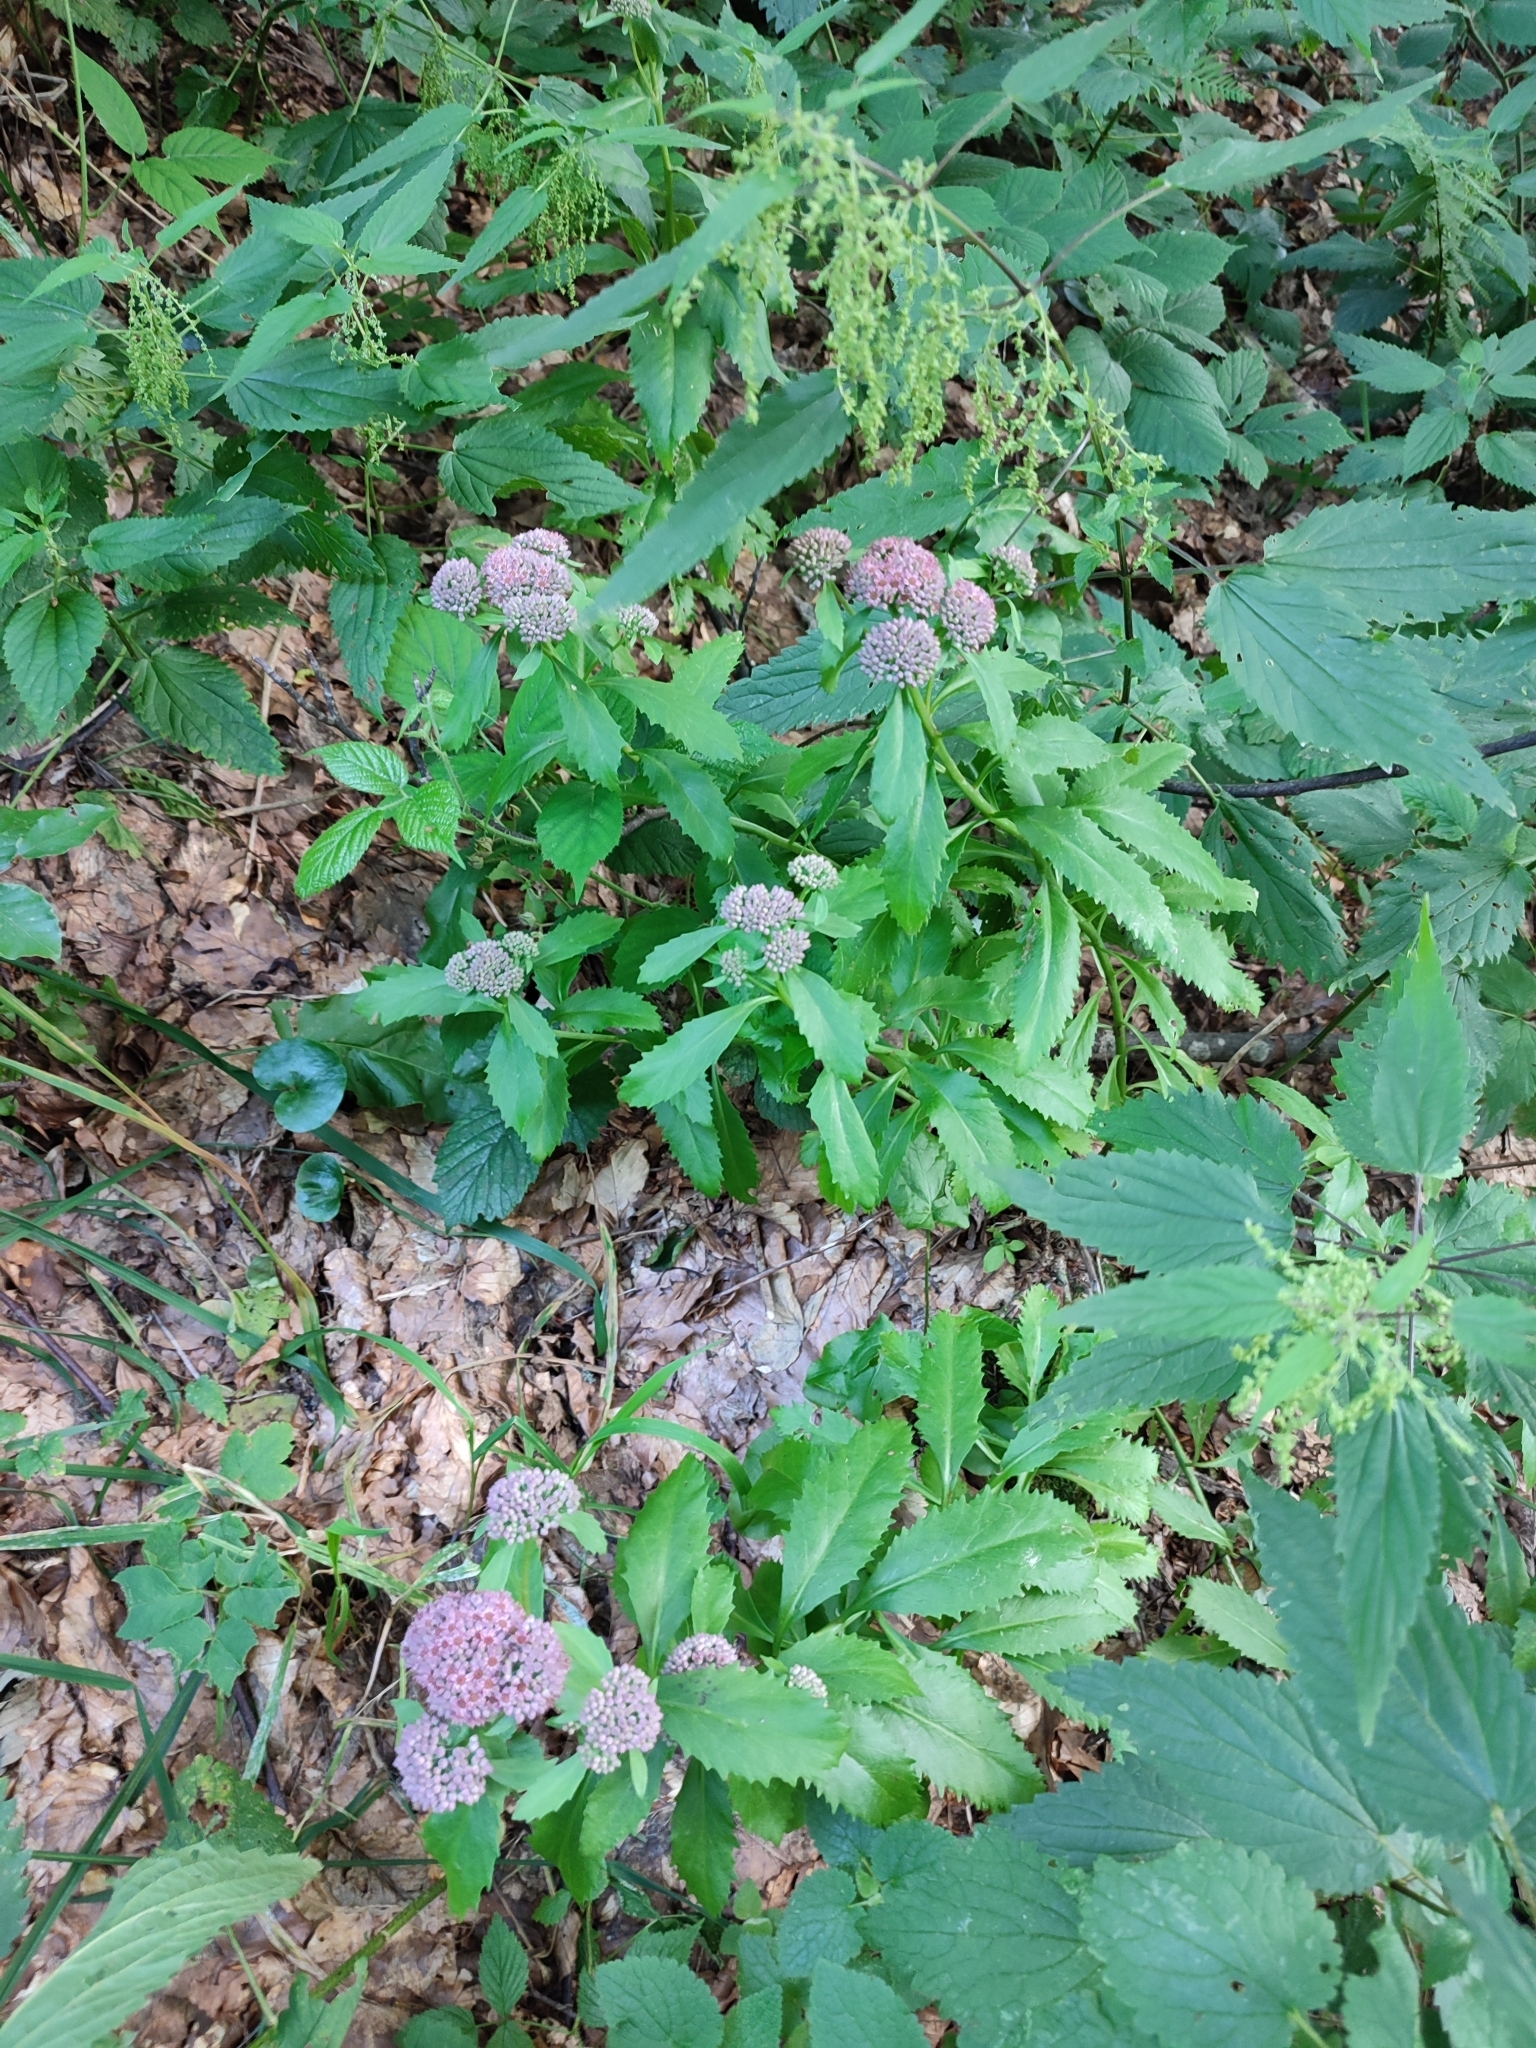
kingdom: Plantae
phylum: Tracheophyta
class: Magnoliopsida
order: Saxifragales
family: Crassulaceae
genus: Hylotelephium
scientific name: Hylotelephium vulgare
